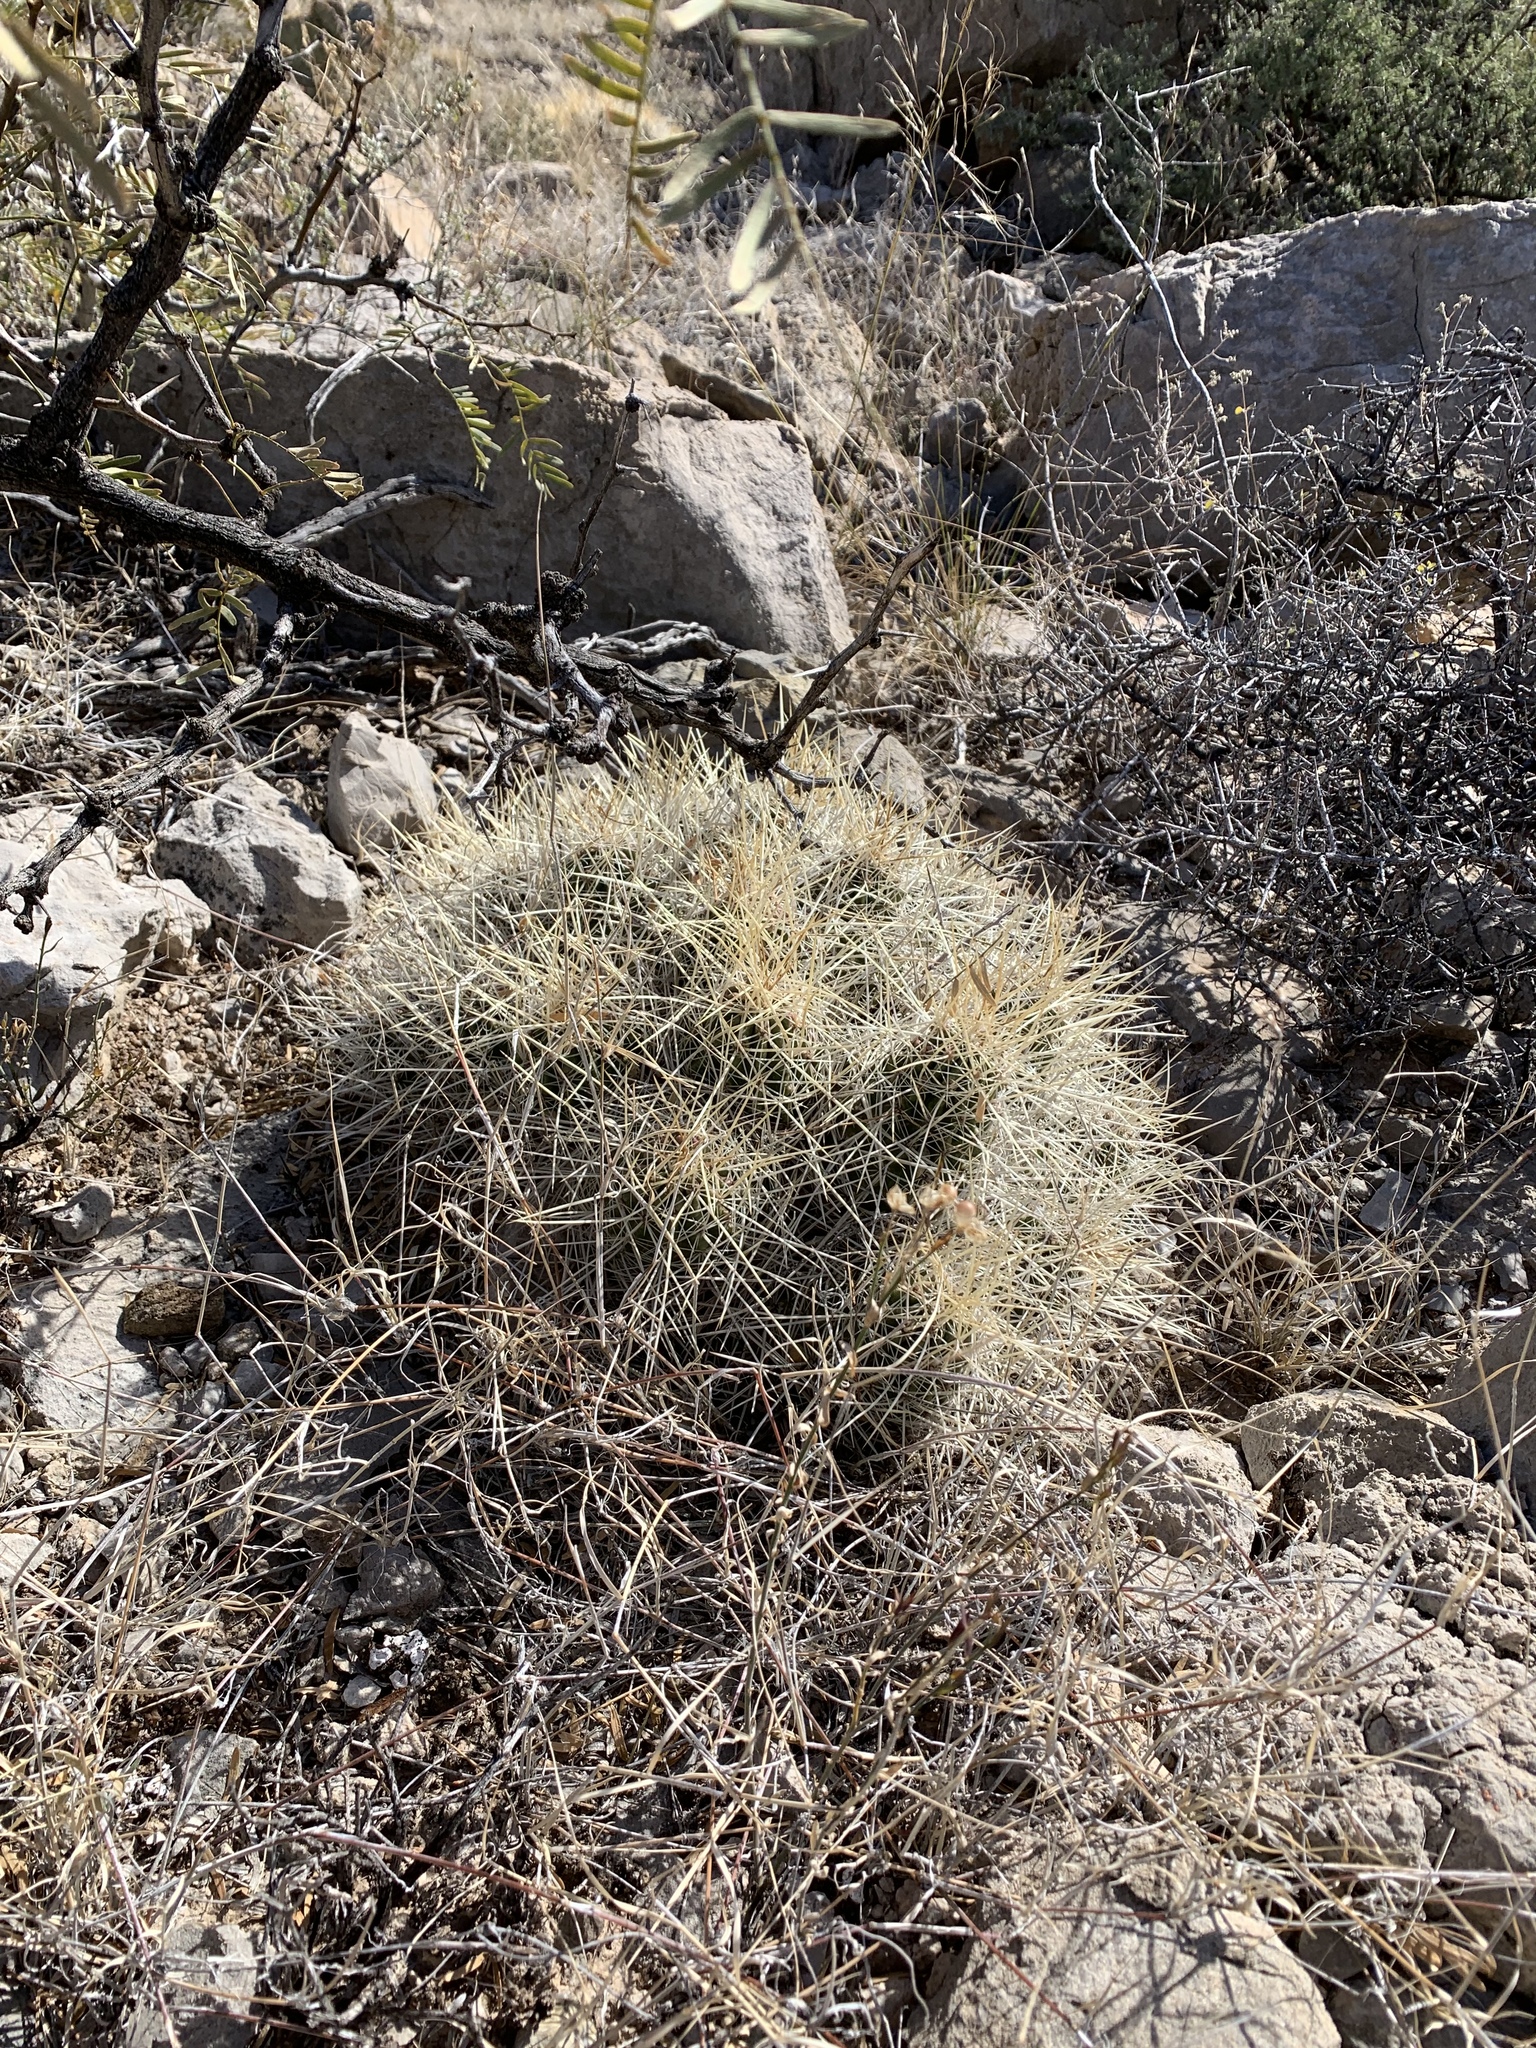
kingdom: Plantae
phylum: Tracheophyta
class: Magnoliopsida
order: Caryophyllales
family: Cactaceae
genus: Echinocereus
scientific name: Echinocereus stramineus
